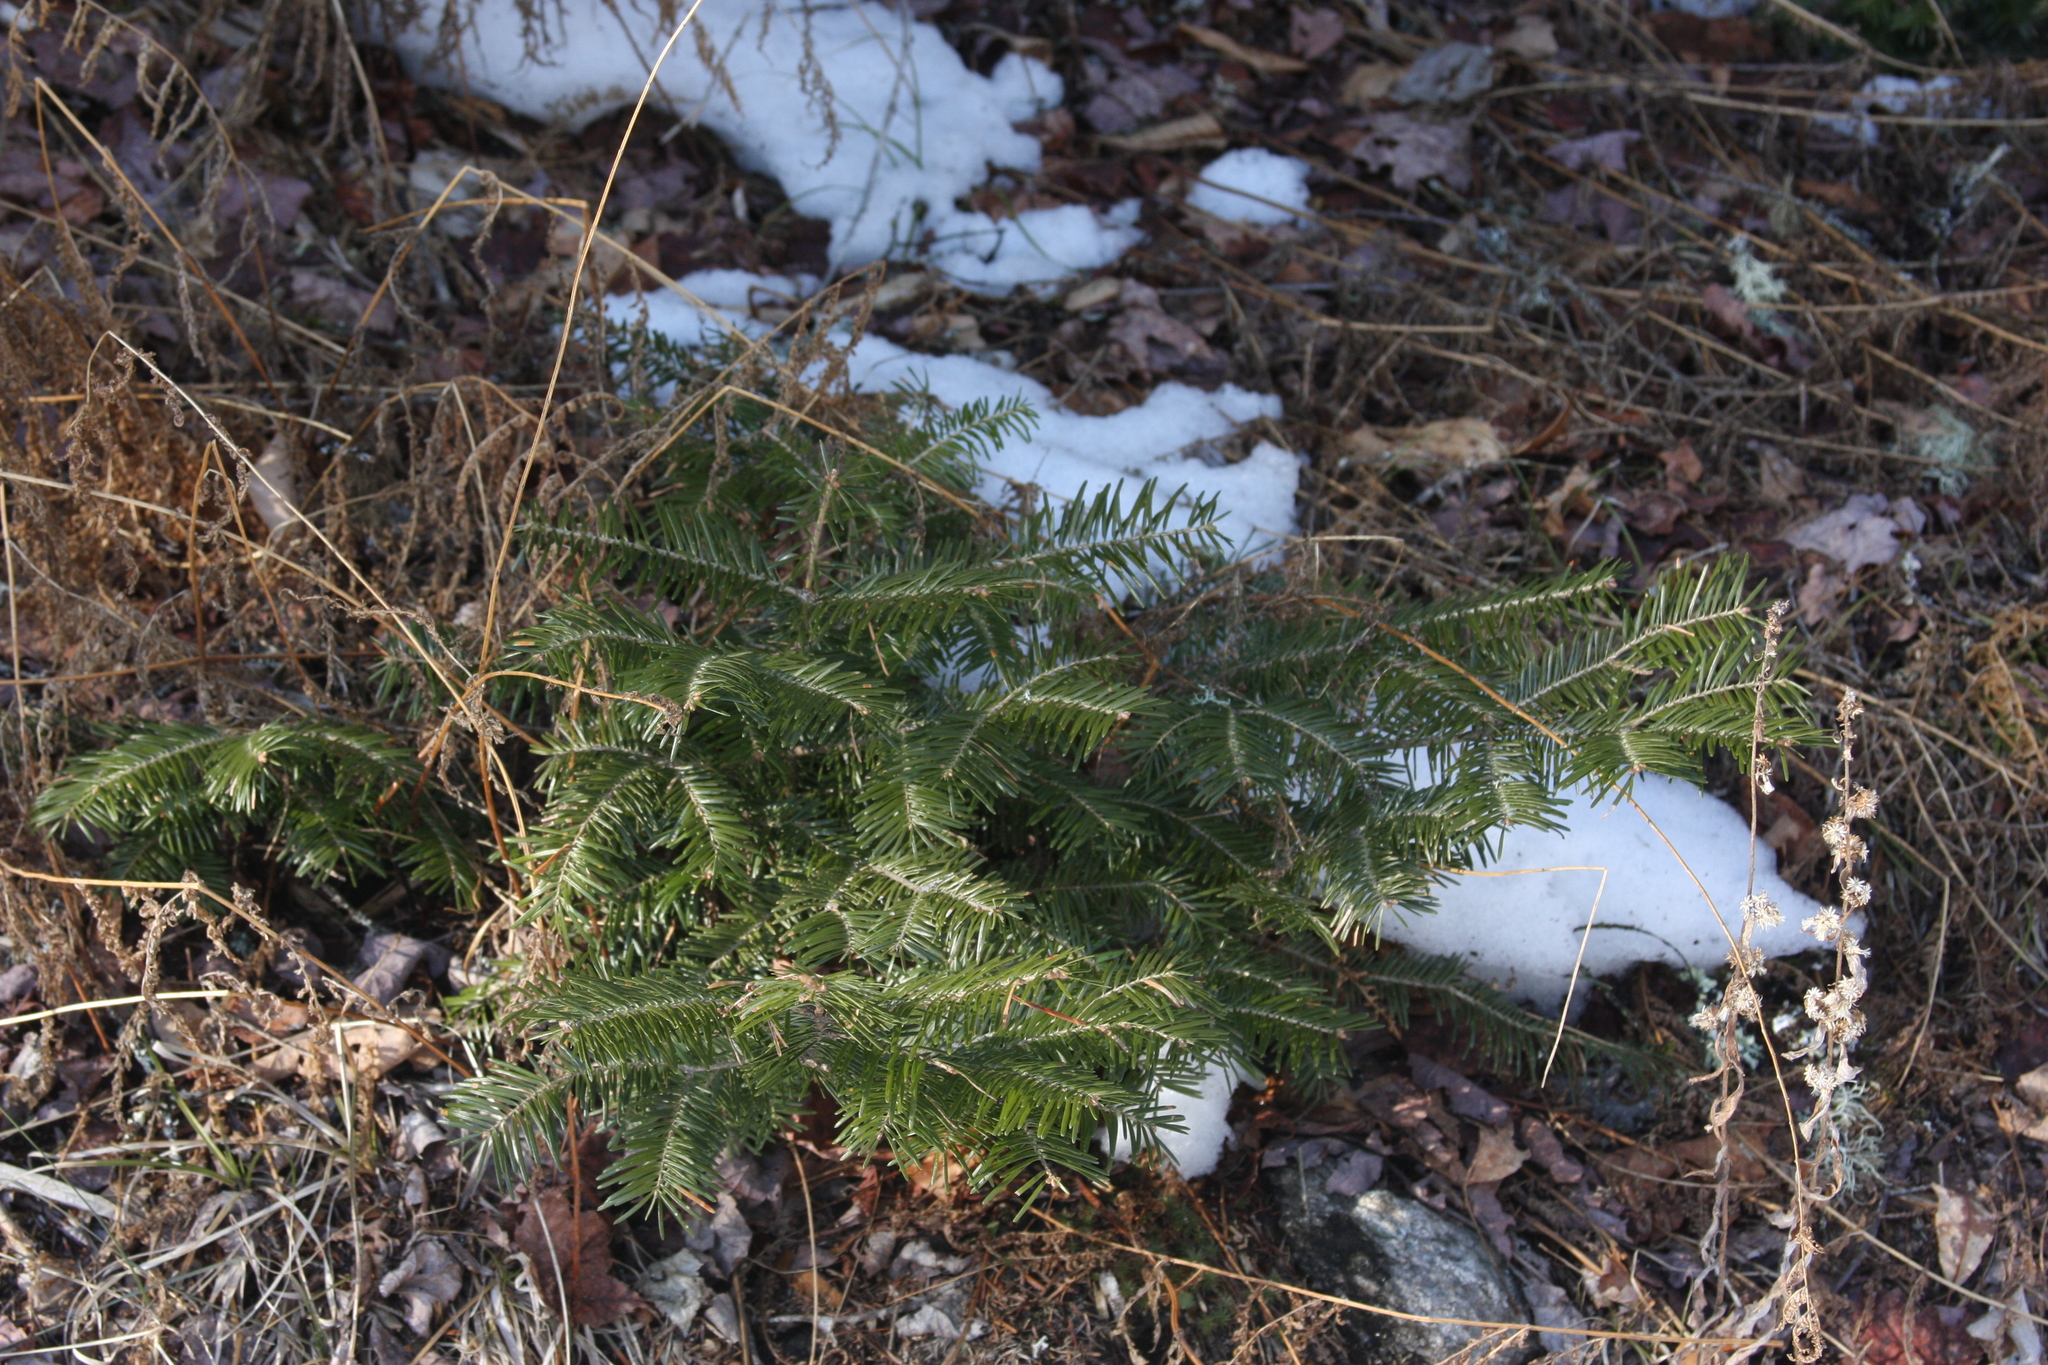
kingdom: Plantae
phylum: Tracheophyta
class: Pinopsida
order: Pinales
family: Pinaceae
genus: Abies
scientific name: Abies balsamea
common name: Balsam fir
